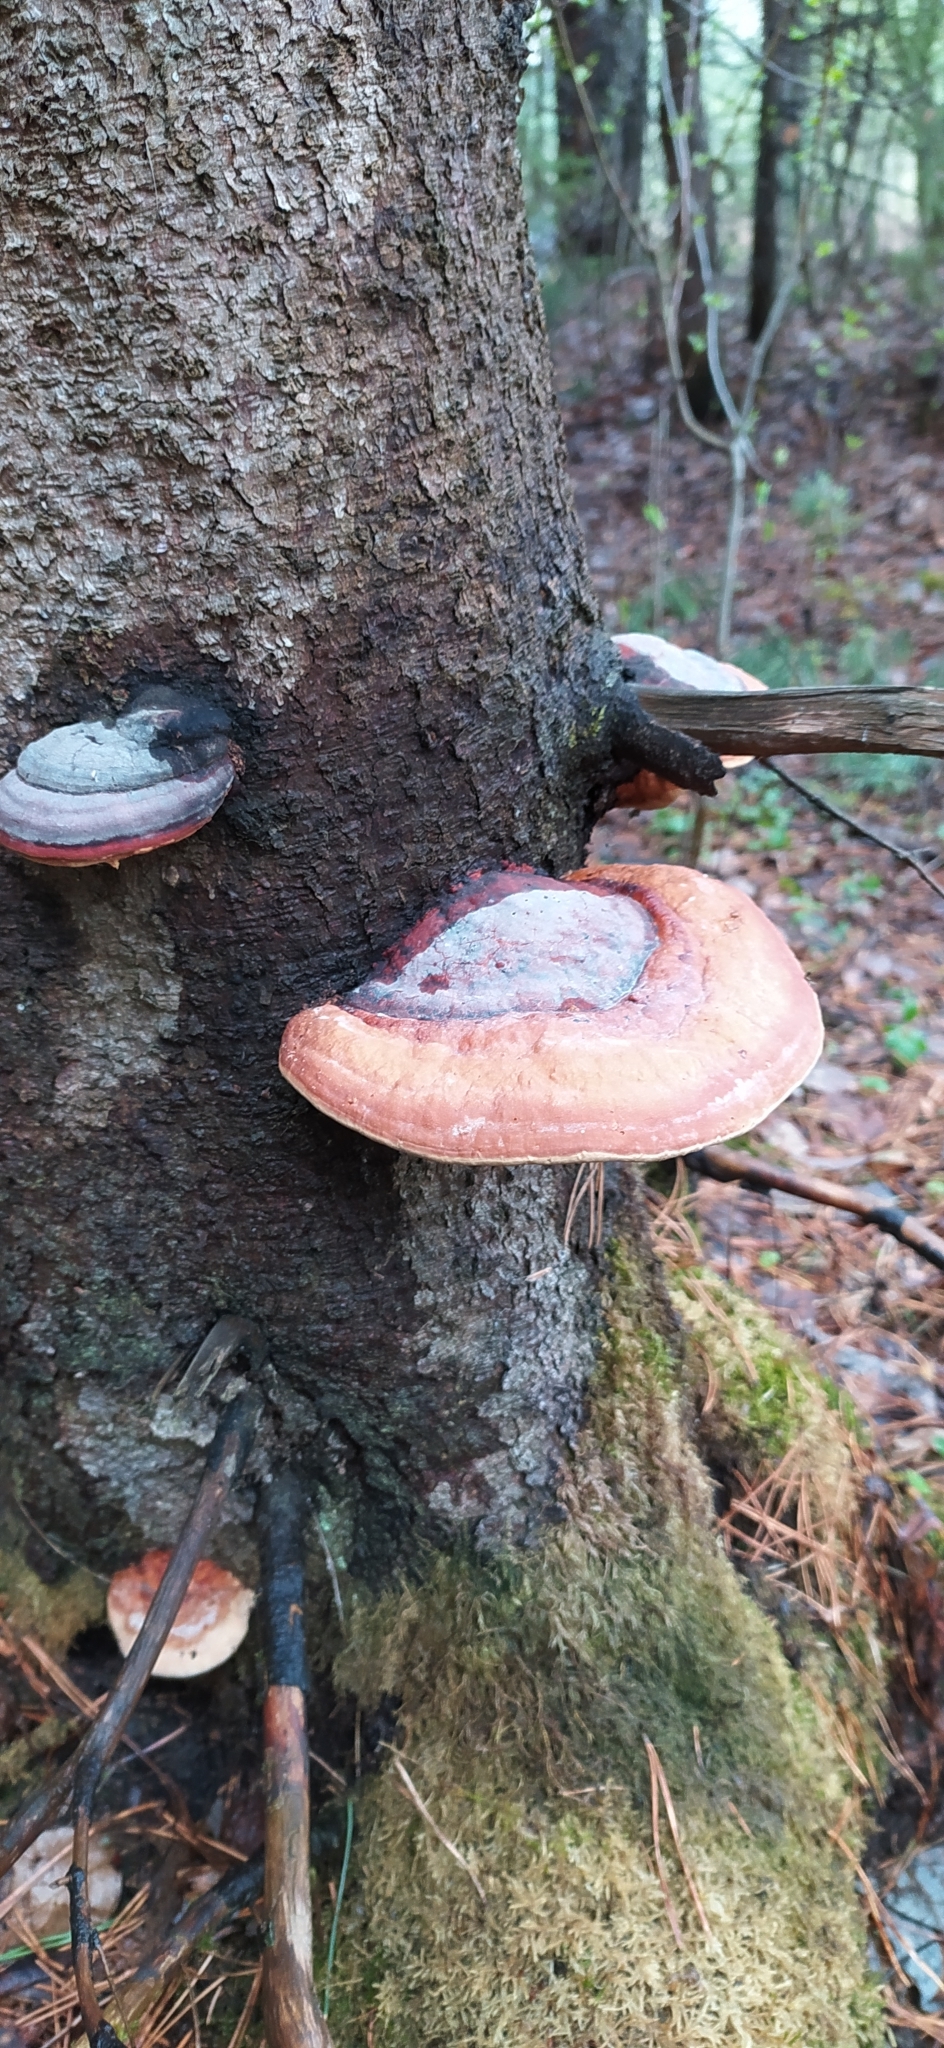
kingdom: Fungi
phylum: Basidiomycota
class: Agaricomycetes
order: Polyporales
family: Fomitopsidaceae
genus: Fomitopsis
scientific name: Fomitopsis pinicola
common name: Red-belted bracket
